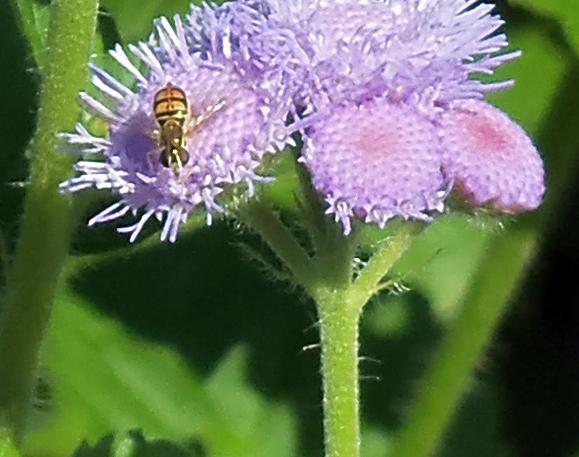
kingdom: Animalia
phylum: Arthropoda
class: Insecta
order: Diptera
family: Syrphidae
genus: Toxomerus
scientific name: Toxomerus marginatus
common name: Syrphid fly
